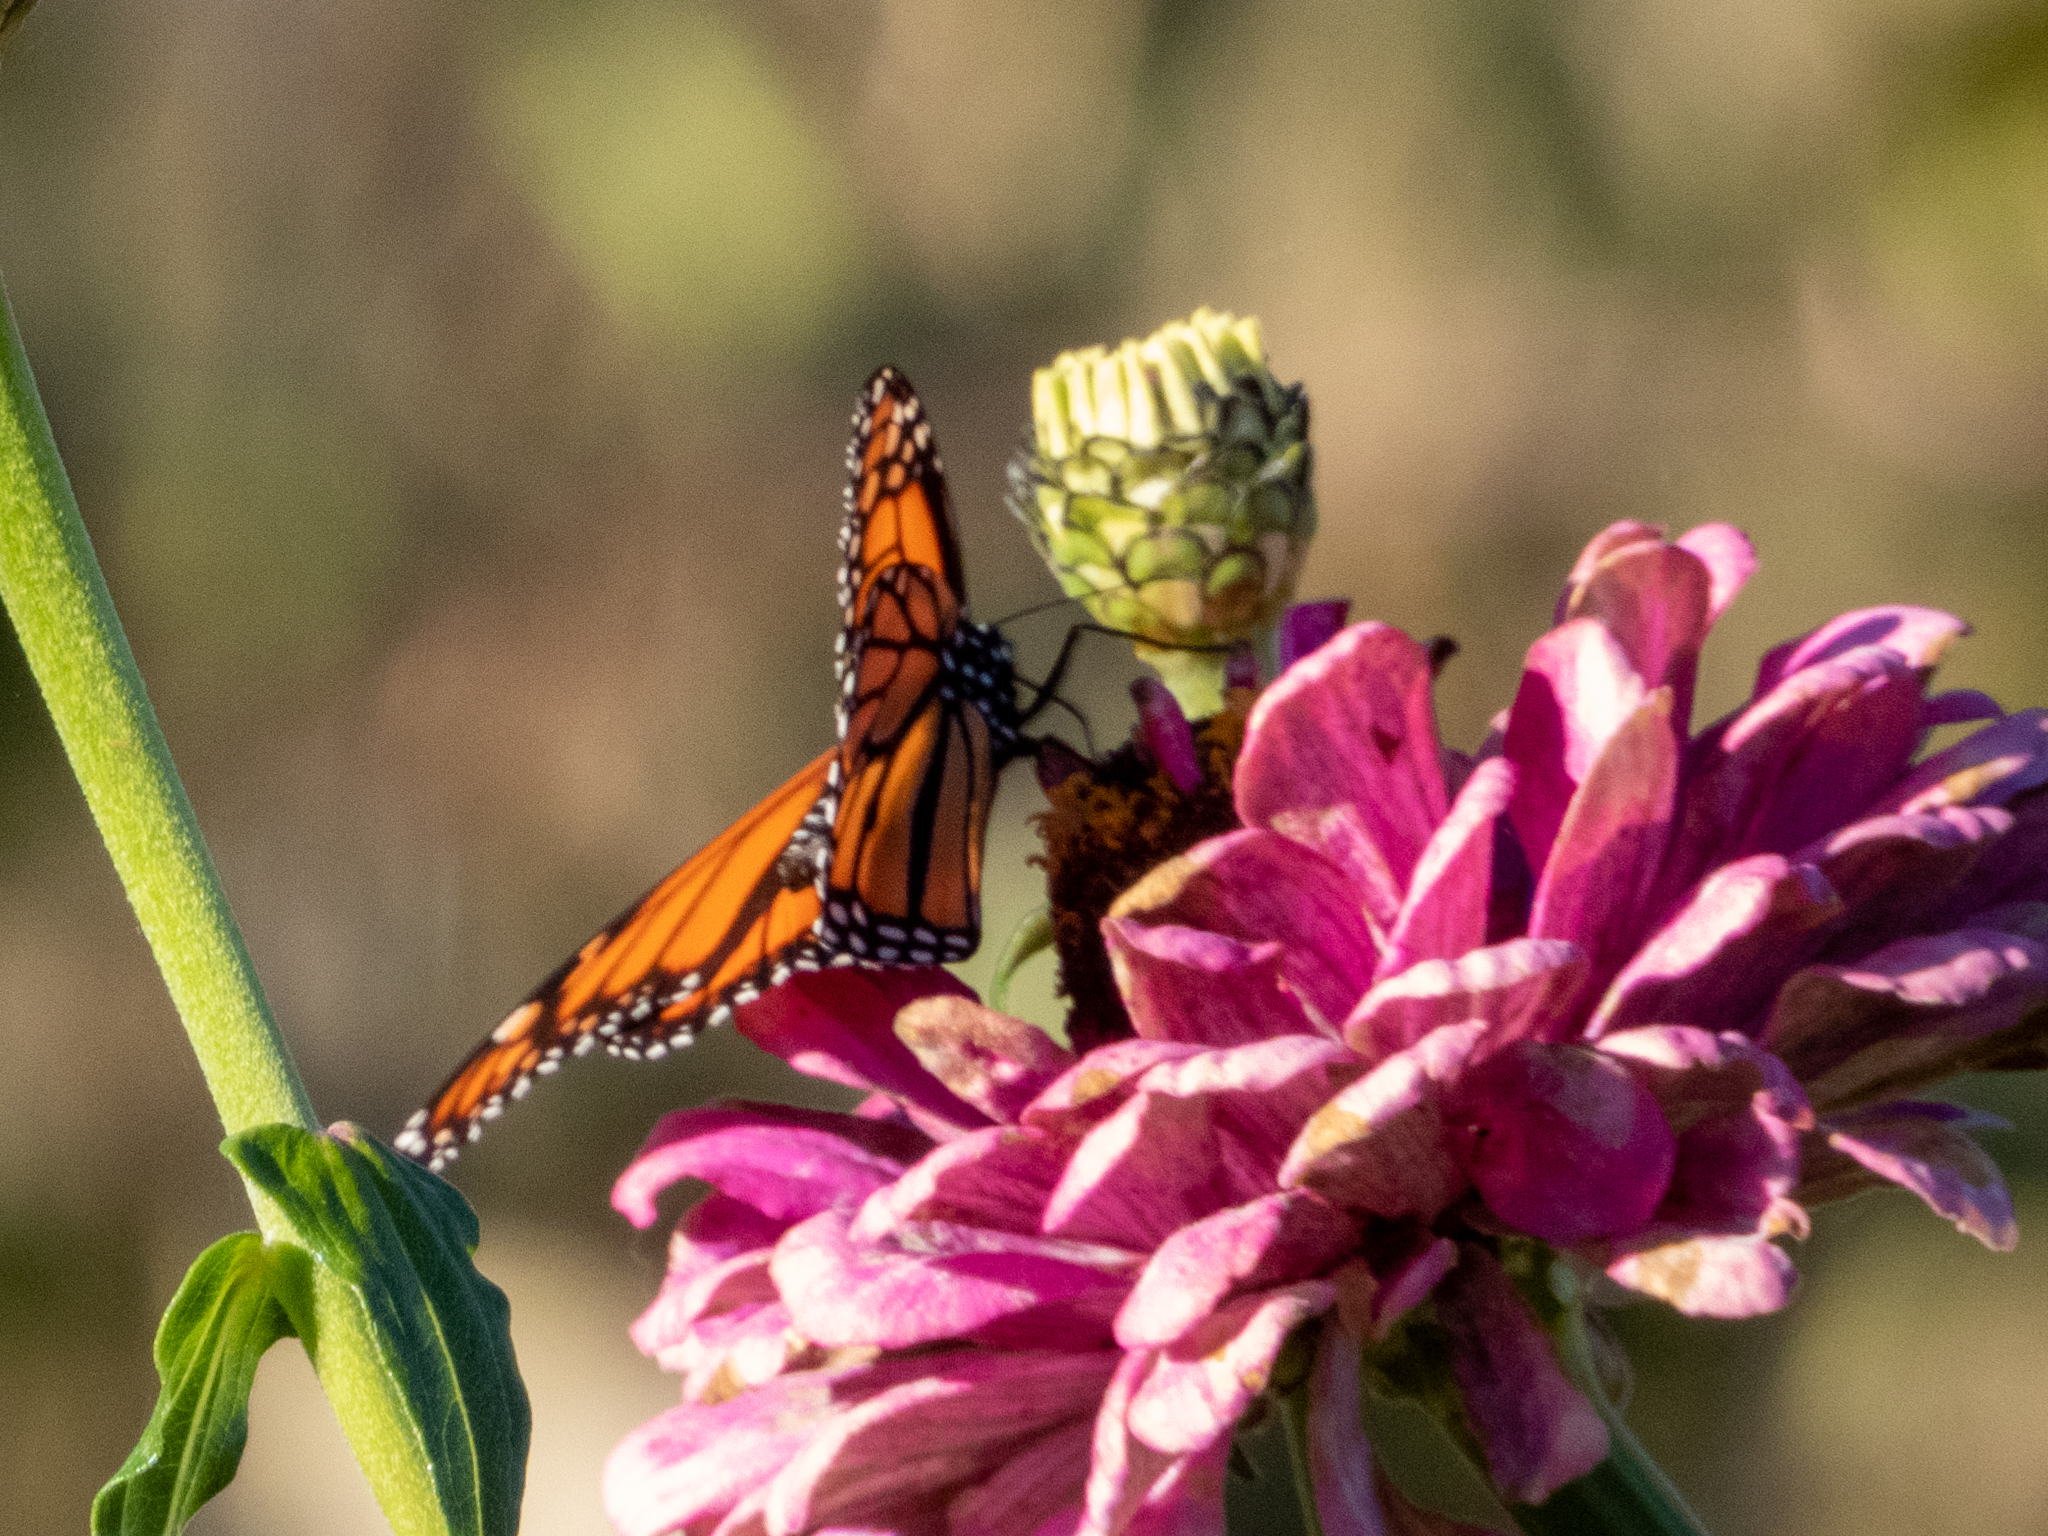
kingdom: Animalia
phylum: Arthropoda
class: Insecta
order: Lepidoptera
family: Nymphalidae
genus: Danaus
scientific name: Danaus plexippus
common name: Monarch
